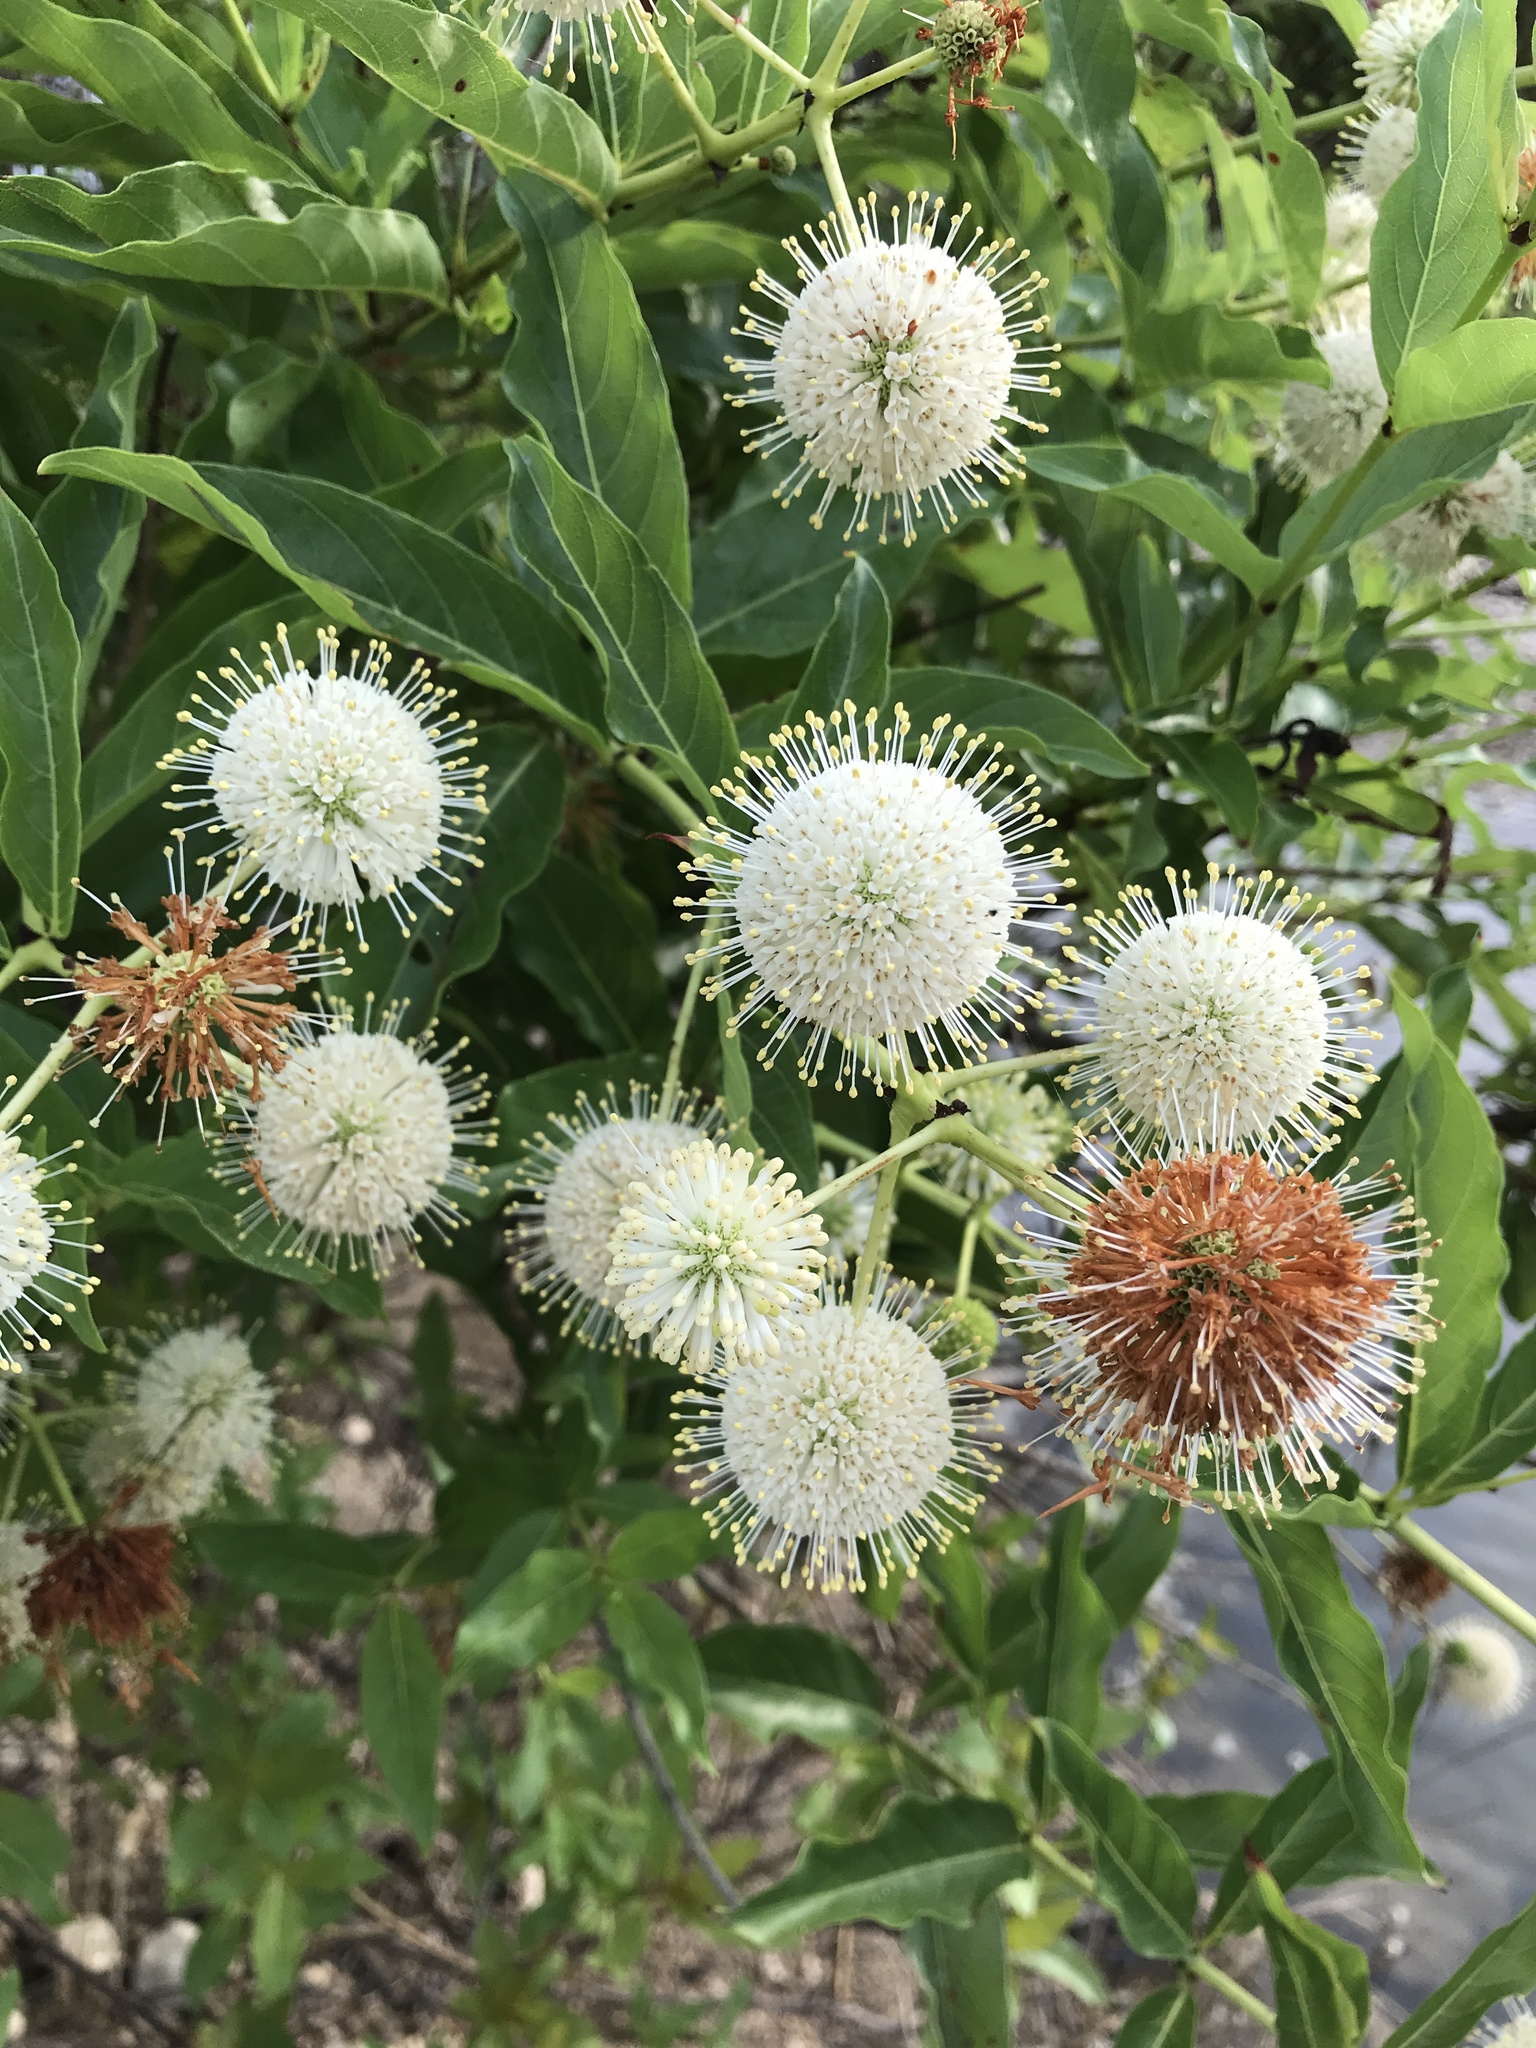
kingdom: Plantae
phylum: Tracheophyta
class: Magnoliopsida
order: Gentianales
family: Rubiaceae
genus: Cephalanthus
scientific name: Cephalanthus occidentalis
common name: Button-willow
